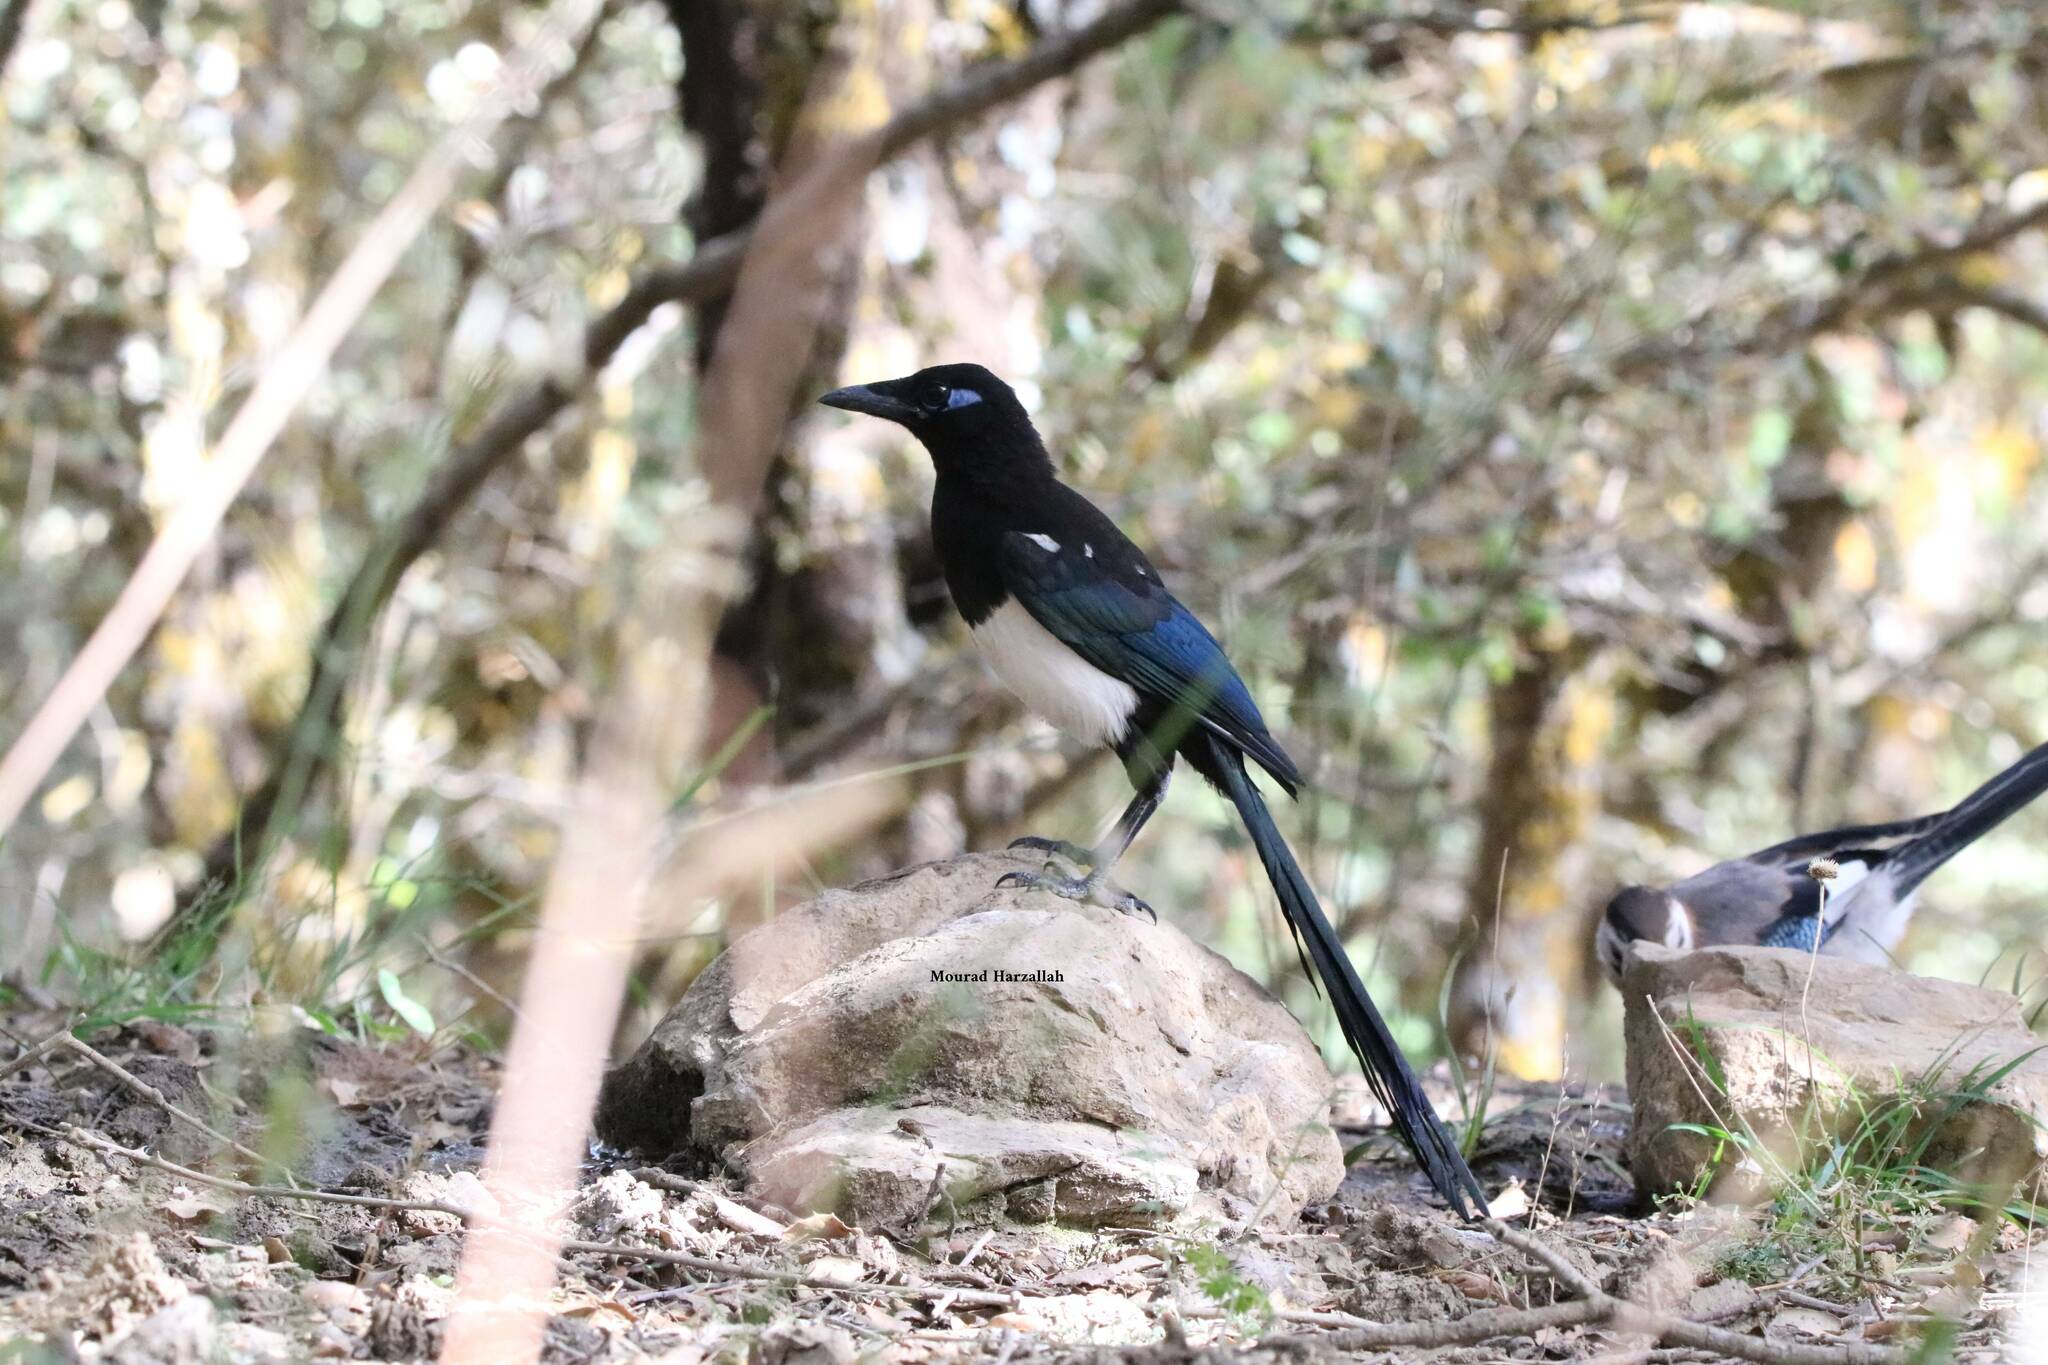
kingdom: Animalia
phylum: Chordata
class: Aves
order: Passeriformes
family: Corvidae
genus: Pica
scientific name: Pica mauritanica
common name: Maghreb magpie
